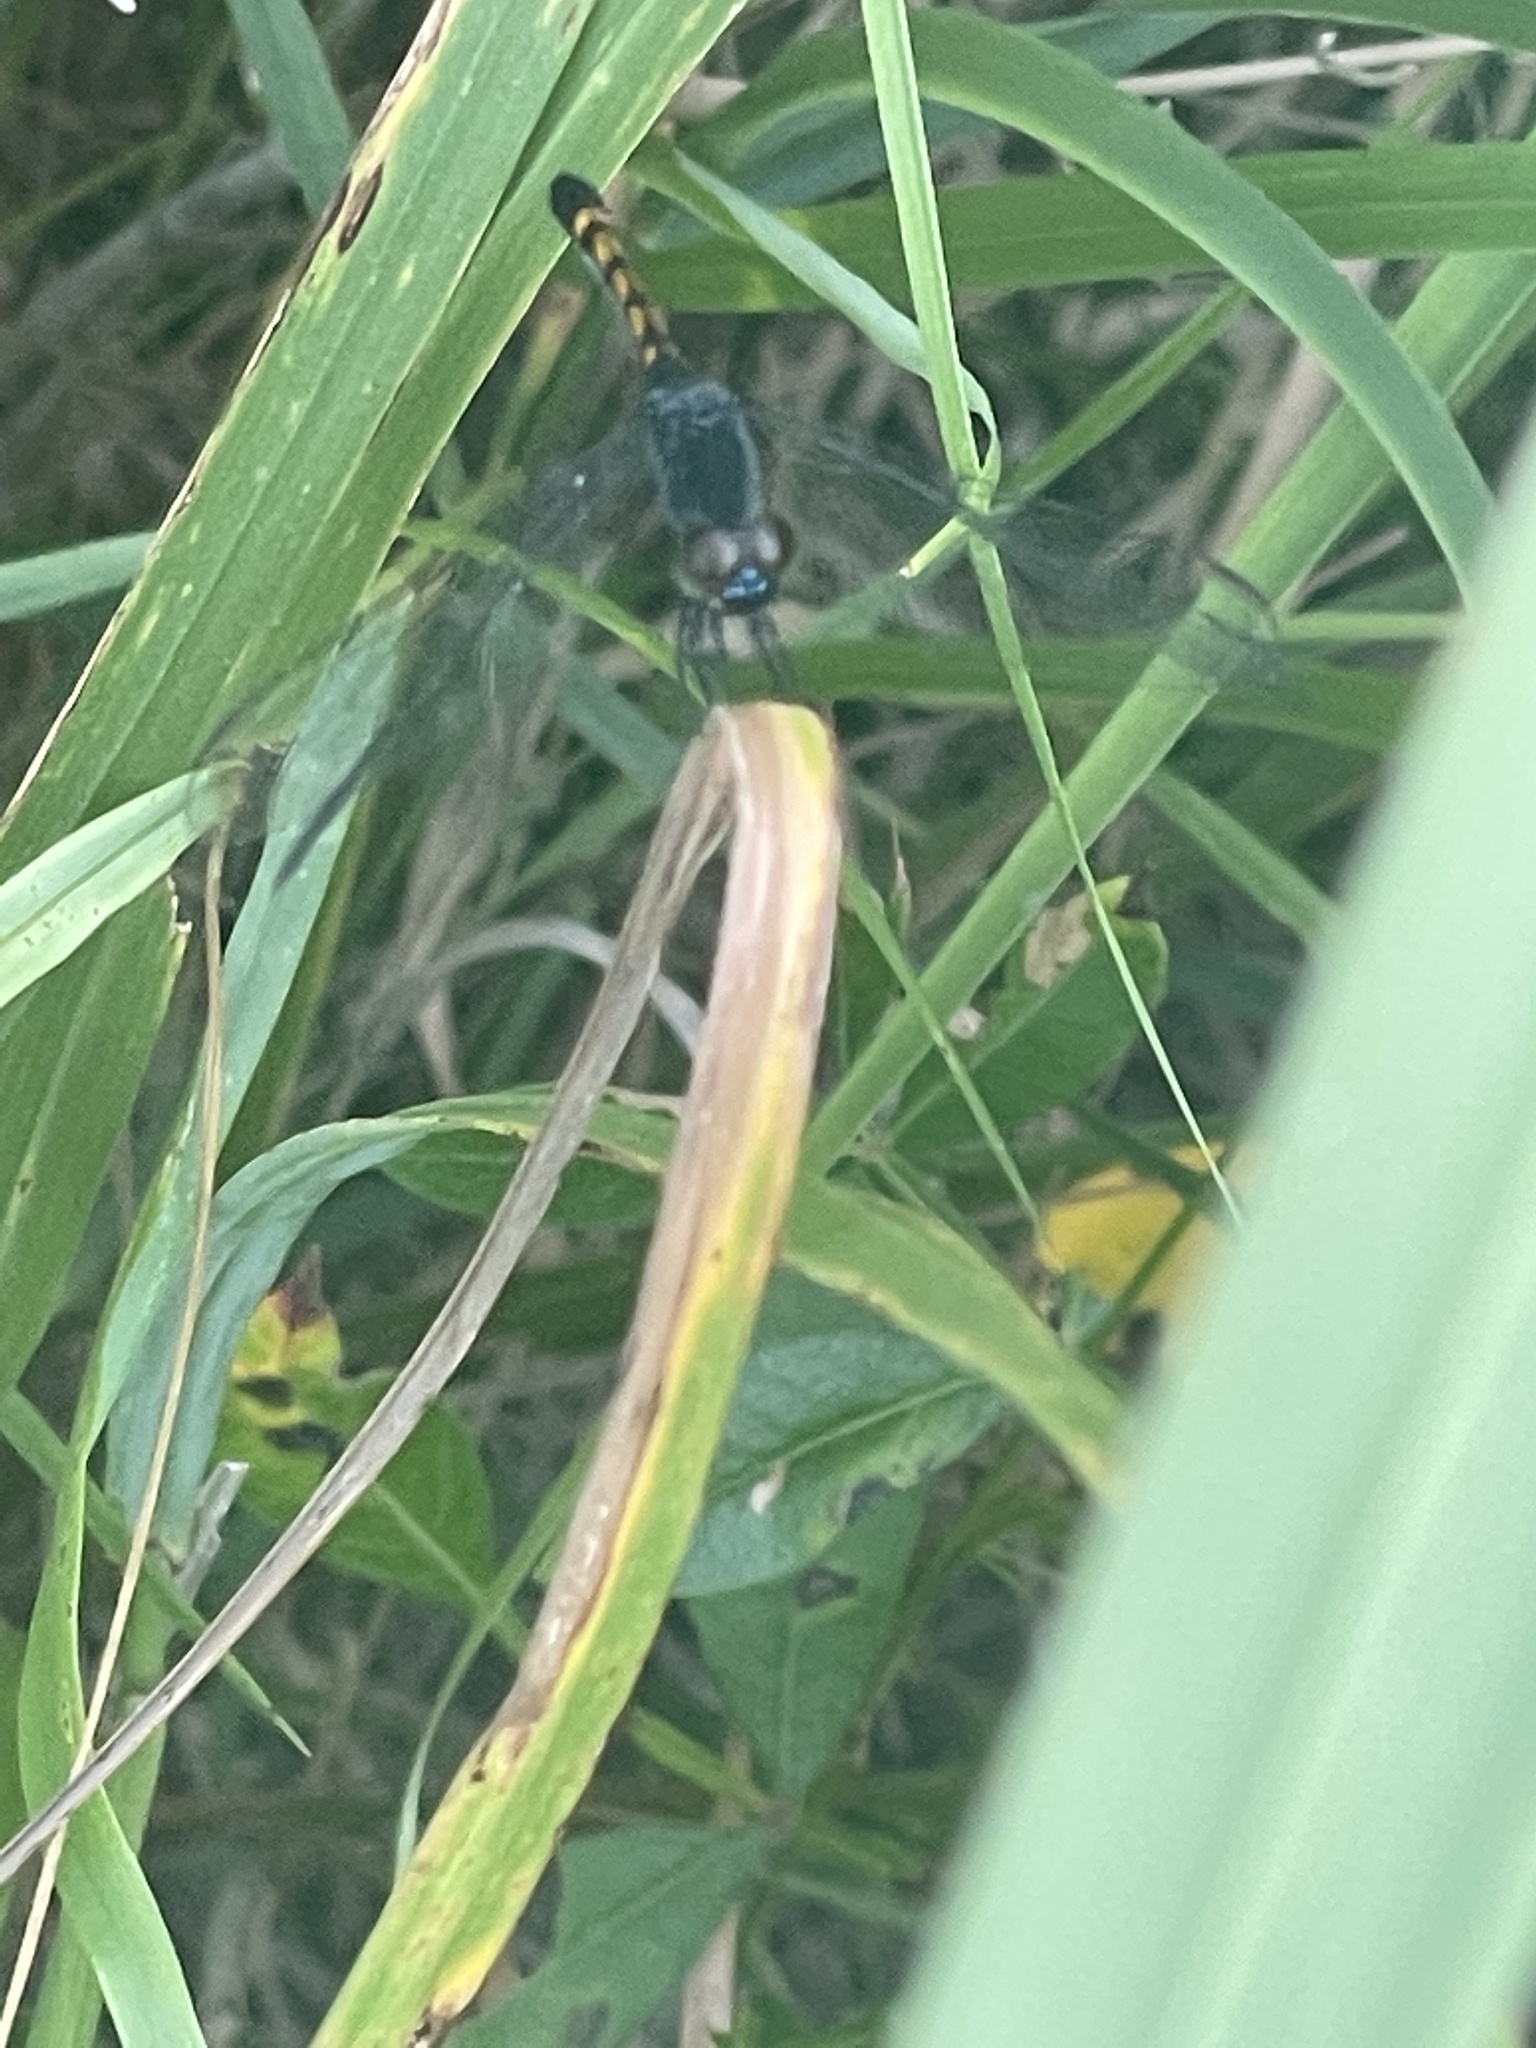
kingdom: Animalia
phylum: Arthropoda
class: Insecta
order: Odonata
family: Libellulidae
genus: Erythrodiplax
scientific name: Erythrodiplax berenice
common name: Seaside dragonlet
